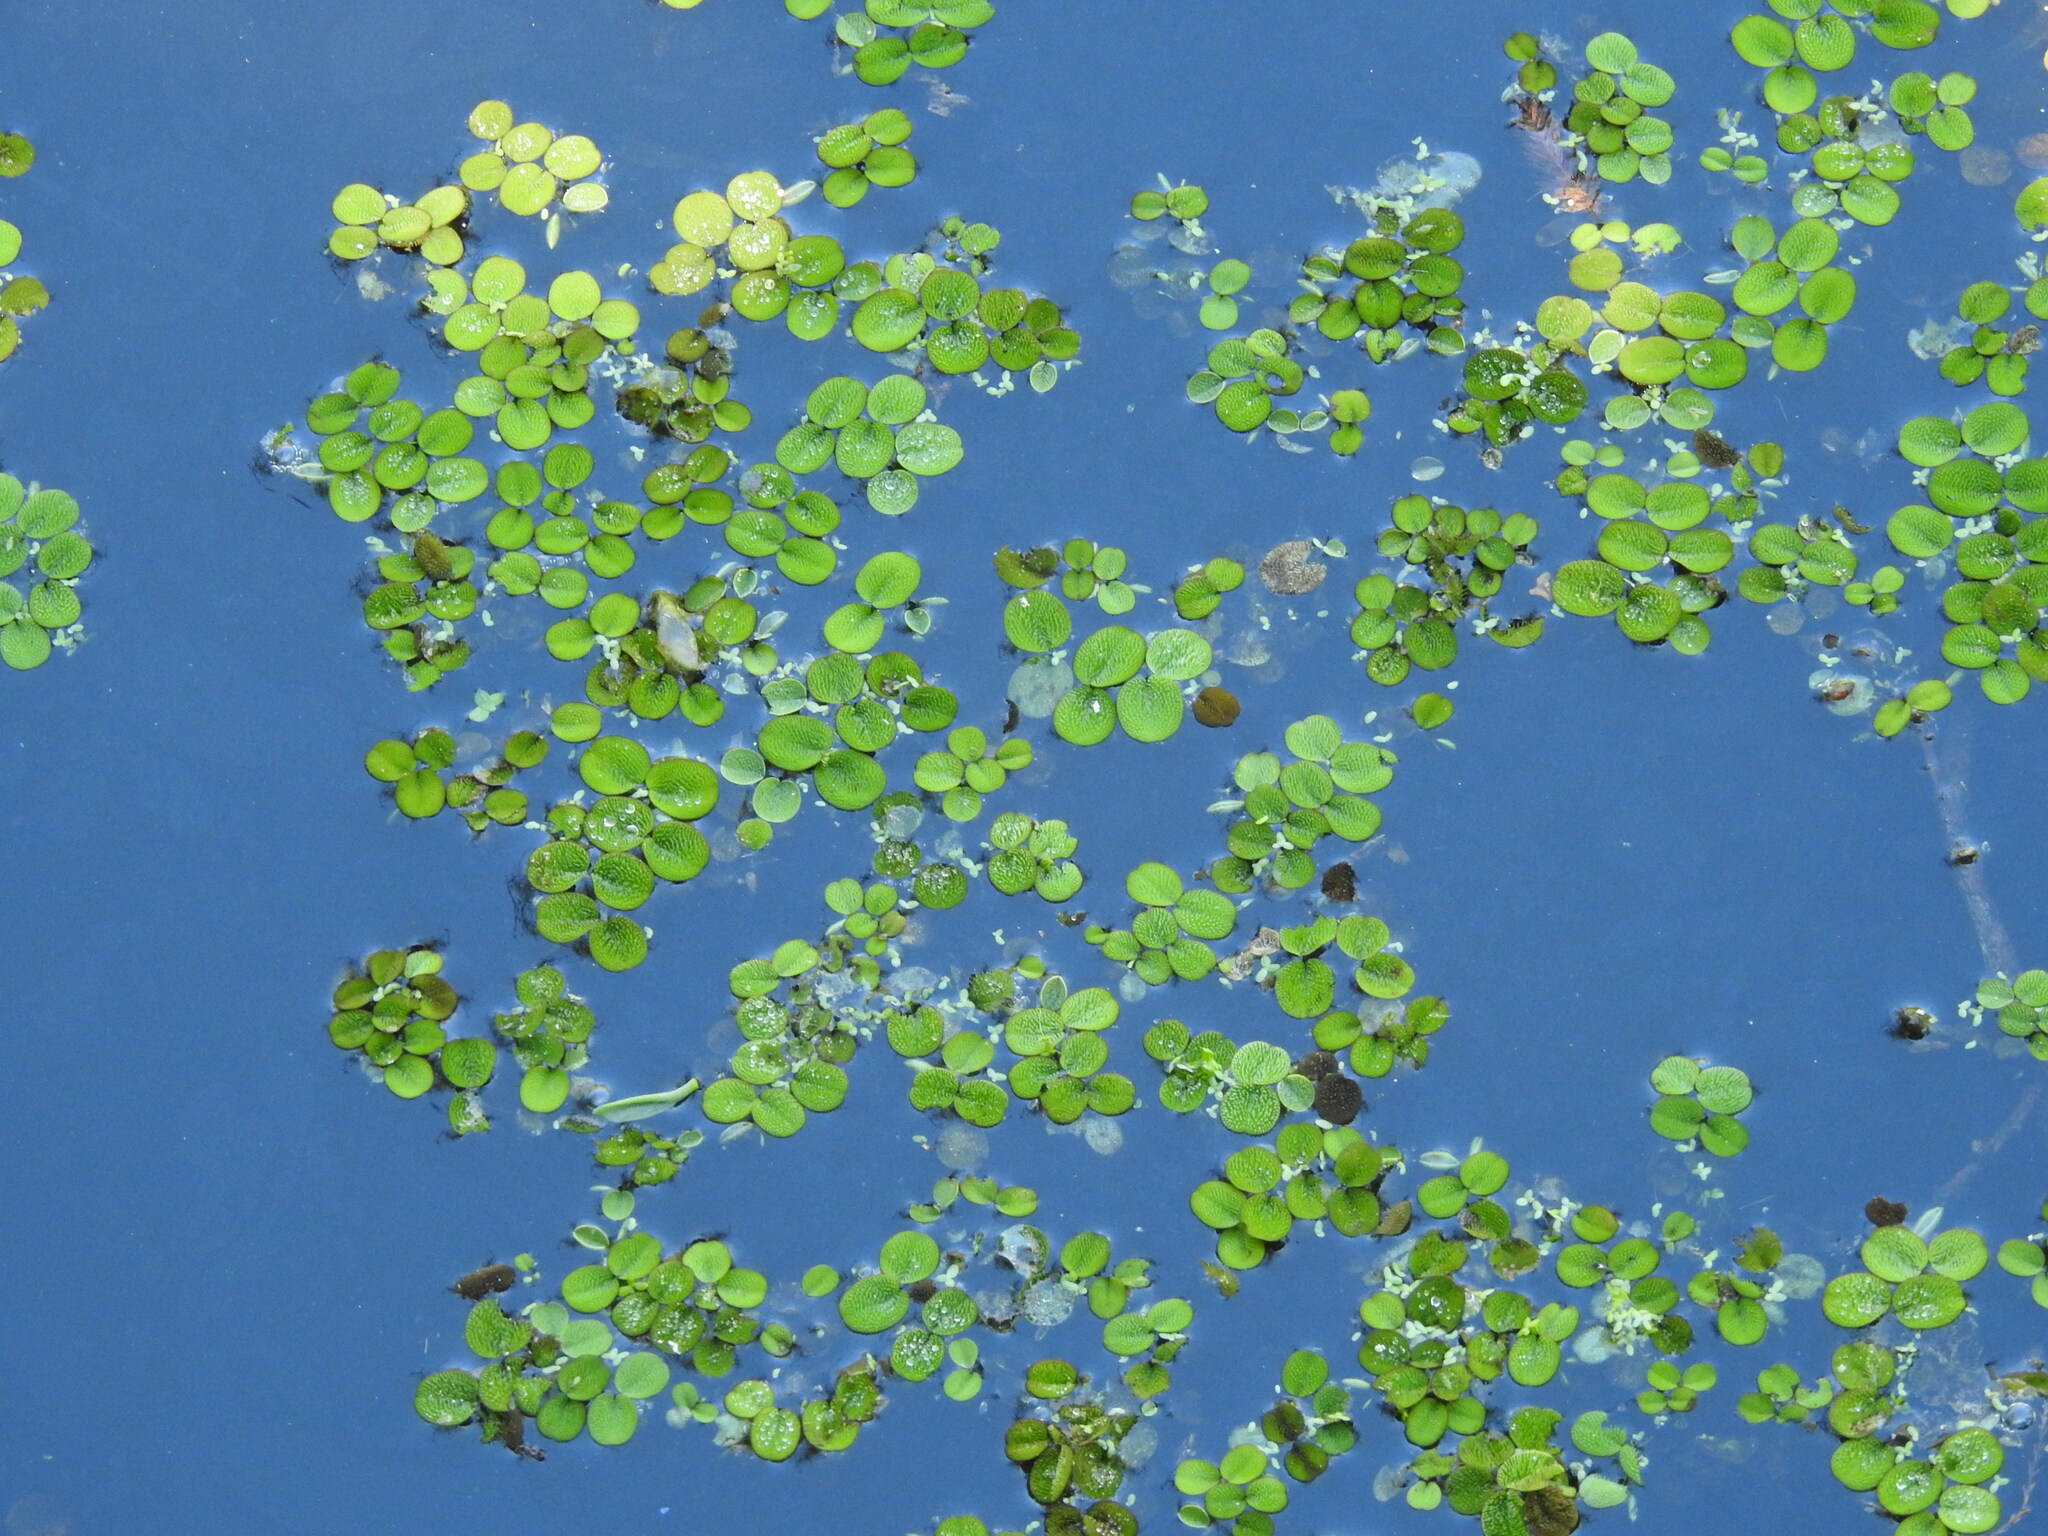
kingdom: Plantae
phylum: Tracheophyta
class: Polypodiopsida
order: Salviniales
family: Salviniaceae
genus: Salvinia
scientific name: Salvinia minima
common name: Water spangles
